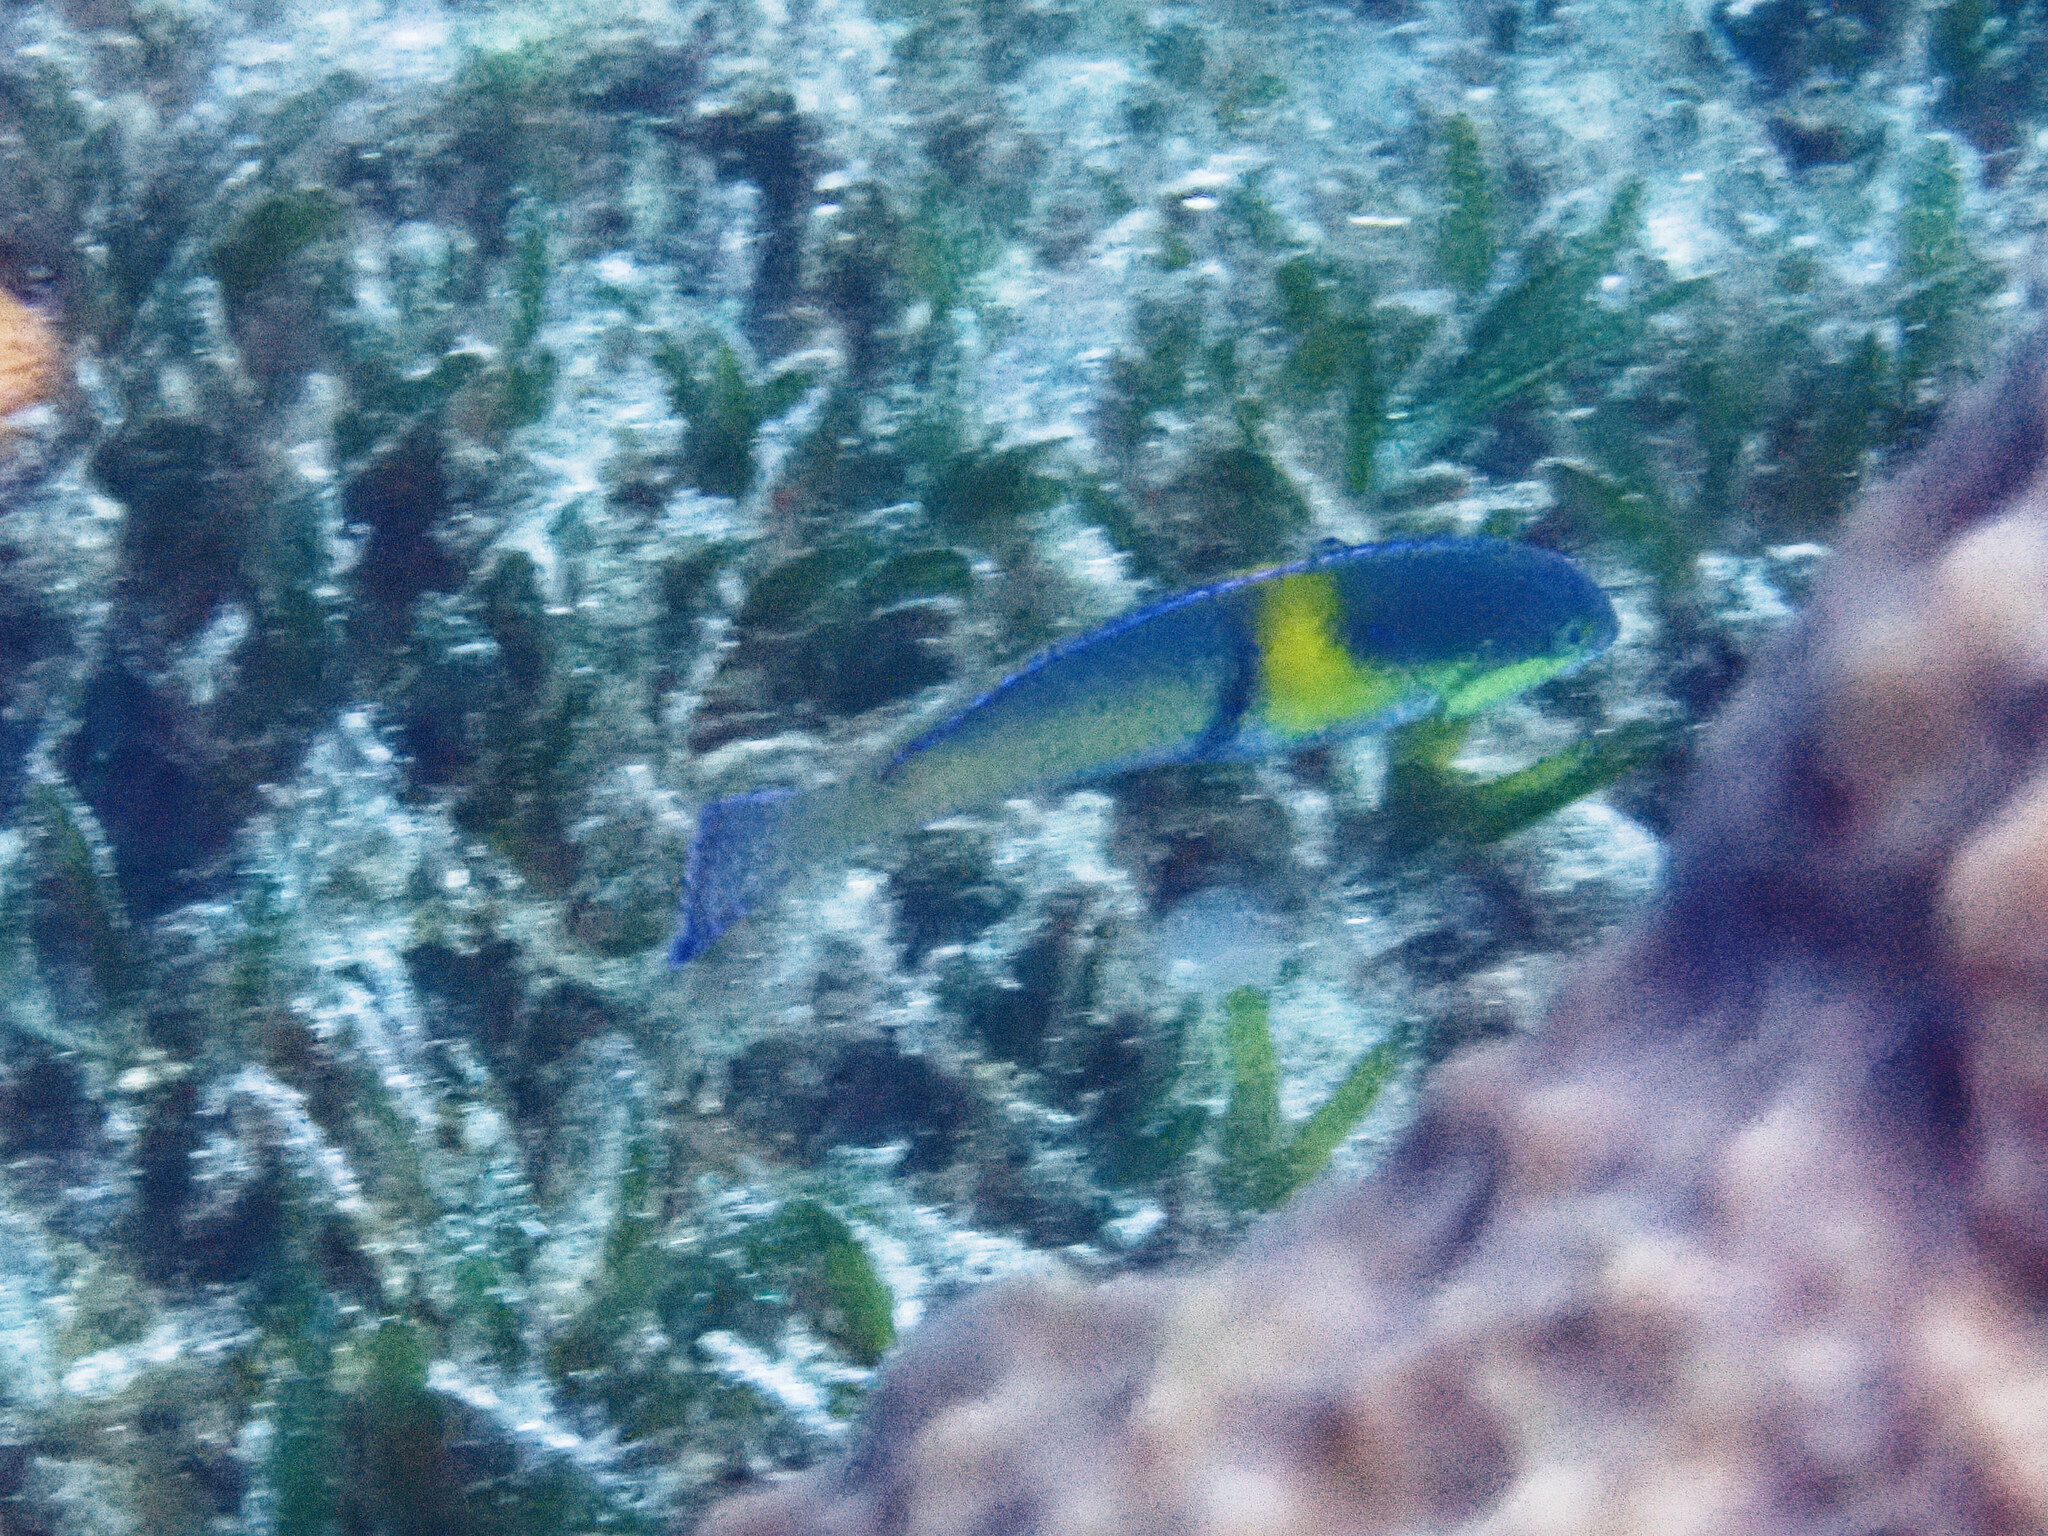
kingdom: Animalia
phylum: Chordata
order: Perciformes
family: Labridae
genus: Halichoeres
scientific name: Halichoeres garnoti
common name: Yellowhead wrasse
